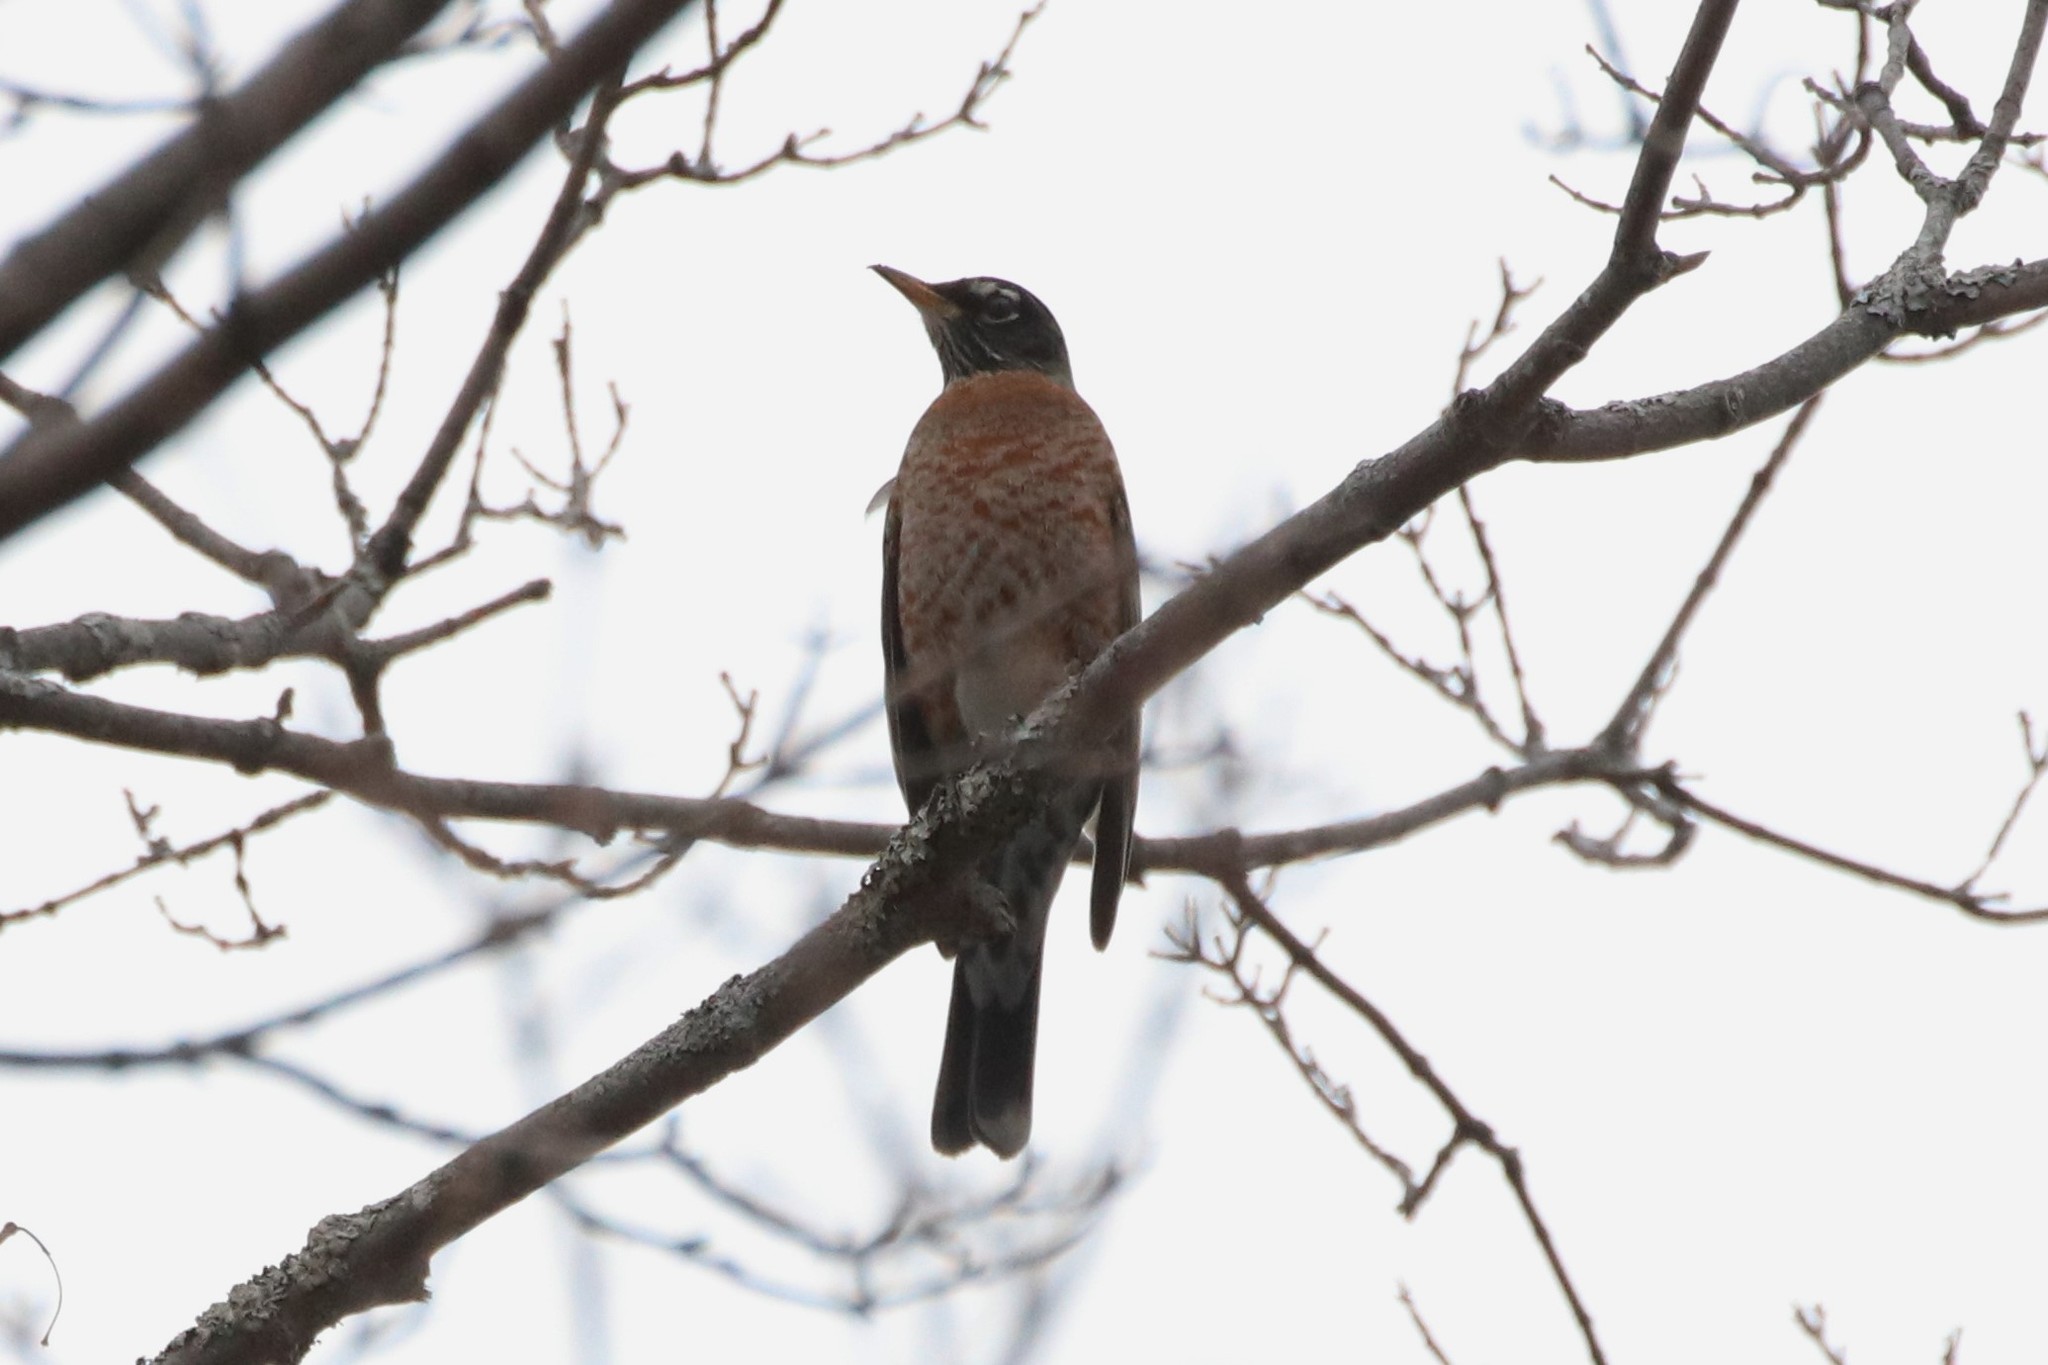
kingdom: Animalia
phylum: Chordata
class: Aves
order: Passeriformes
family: Turdidae
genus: Turdus
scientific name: Turdus migratorius
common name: American robin
